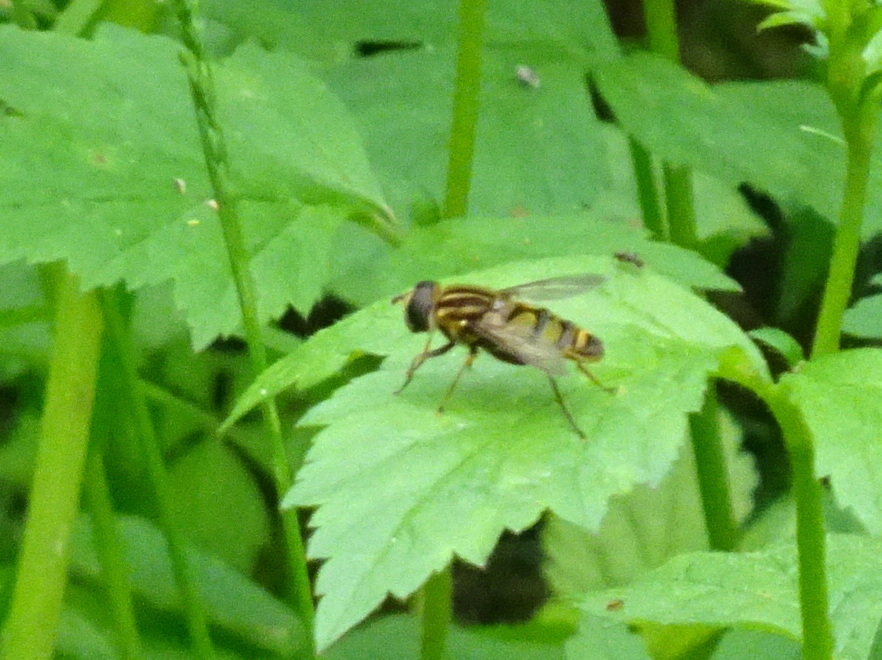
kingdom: Animalia
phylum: Arthropoda
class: Insecta
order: Diptera
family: Syrphidae
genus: Helophilus
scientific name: Helophilus fasciatus
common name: Narrow-headed marsh fly
